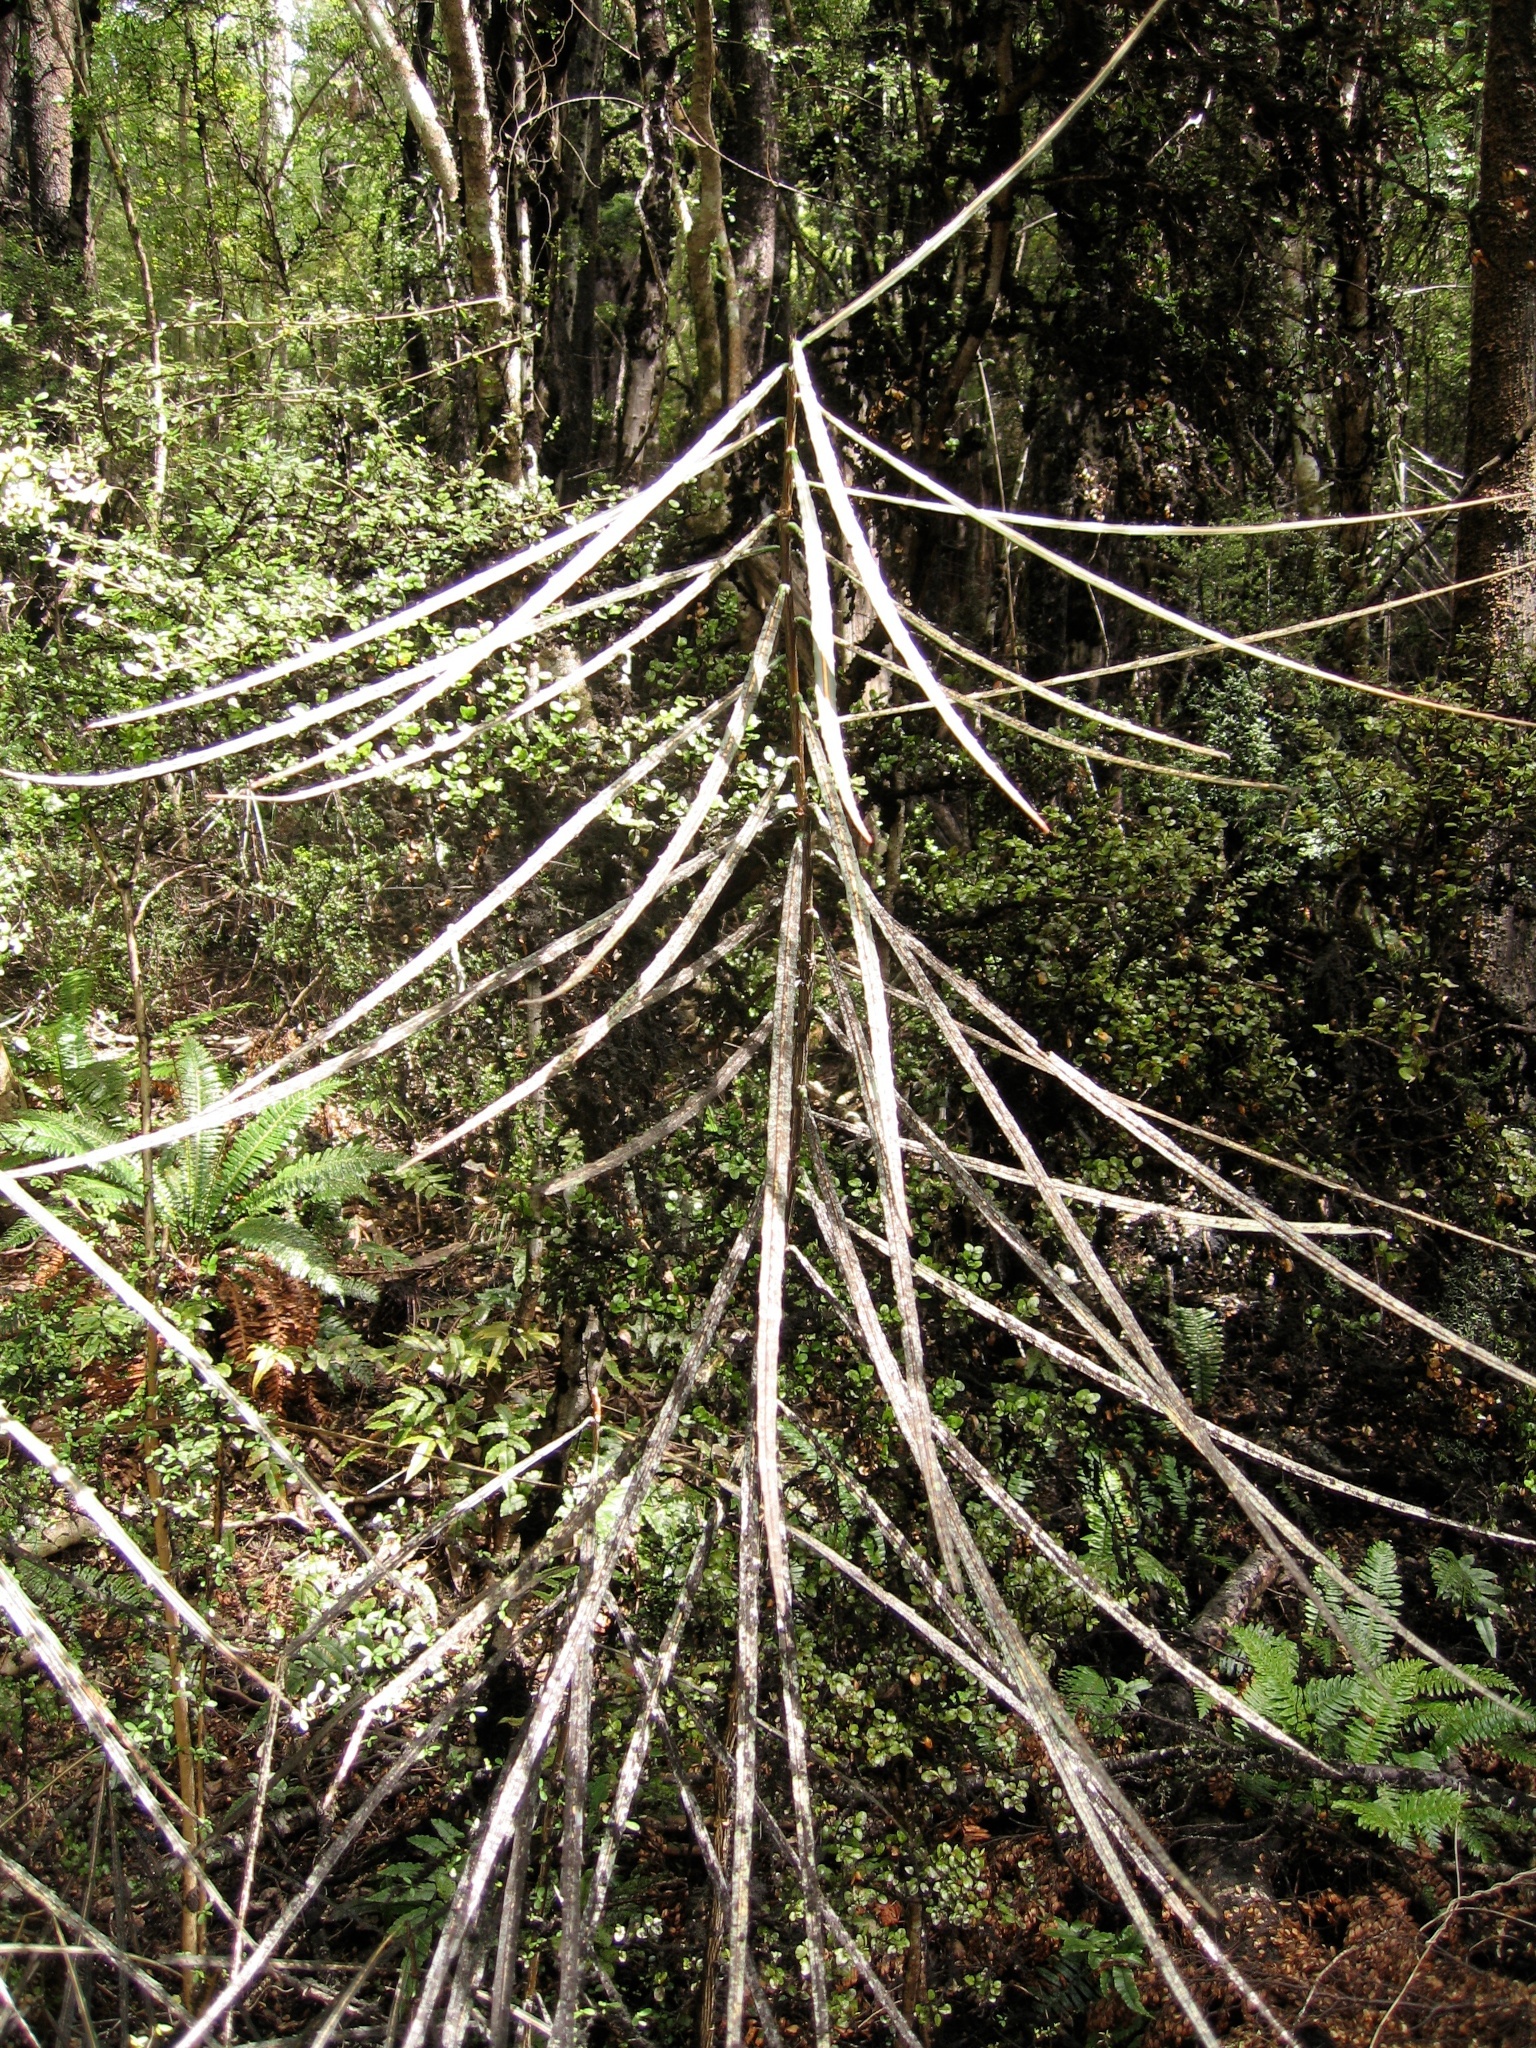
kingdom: Plantae
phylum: Tracheophyta
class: Magnoliopsida
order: Apiales
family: Araliaceae
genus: Pseudopanax
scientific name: Pseudopanax crassifolius
